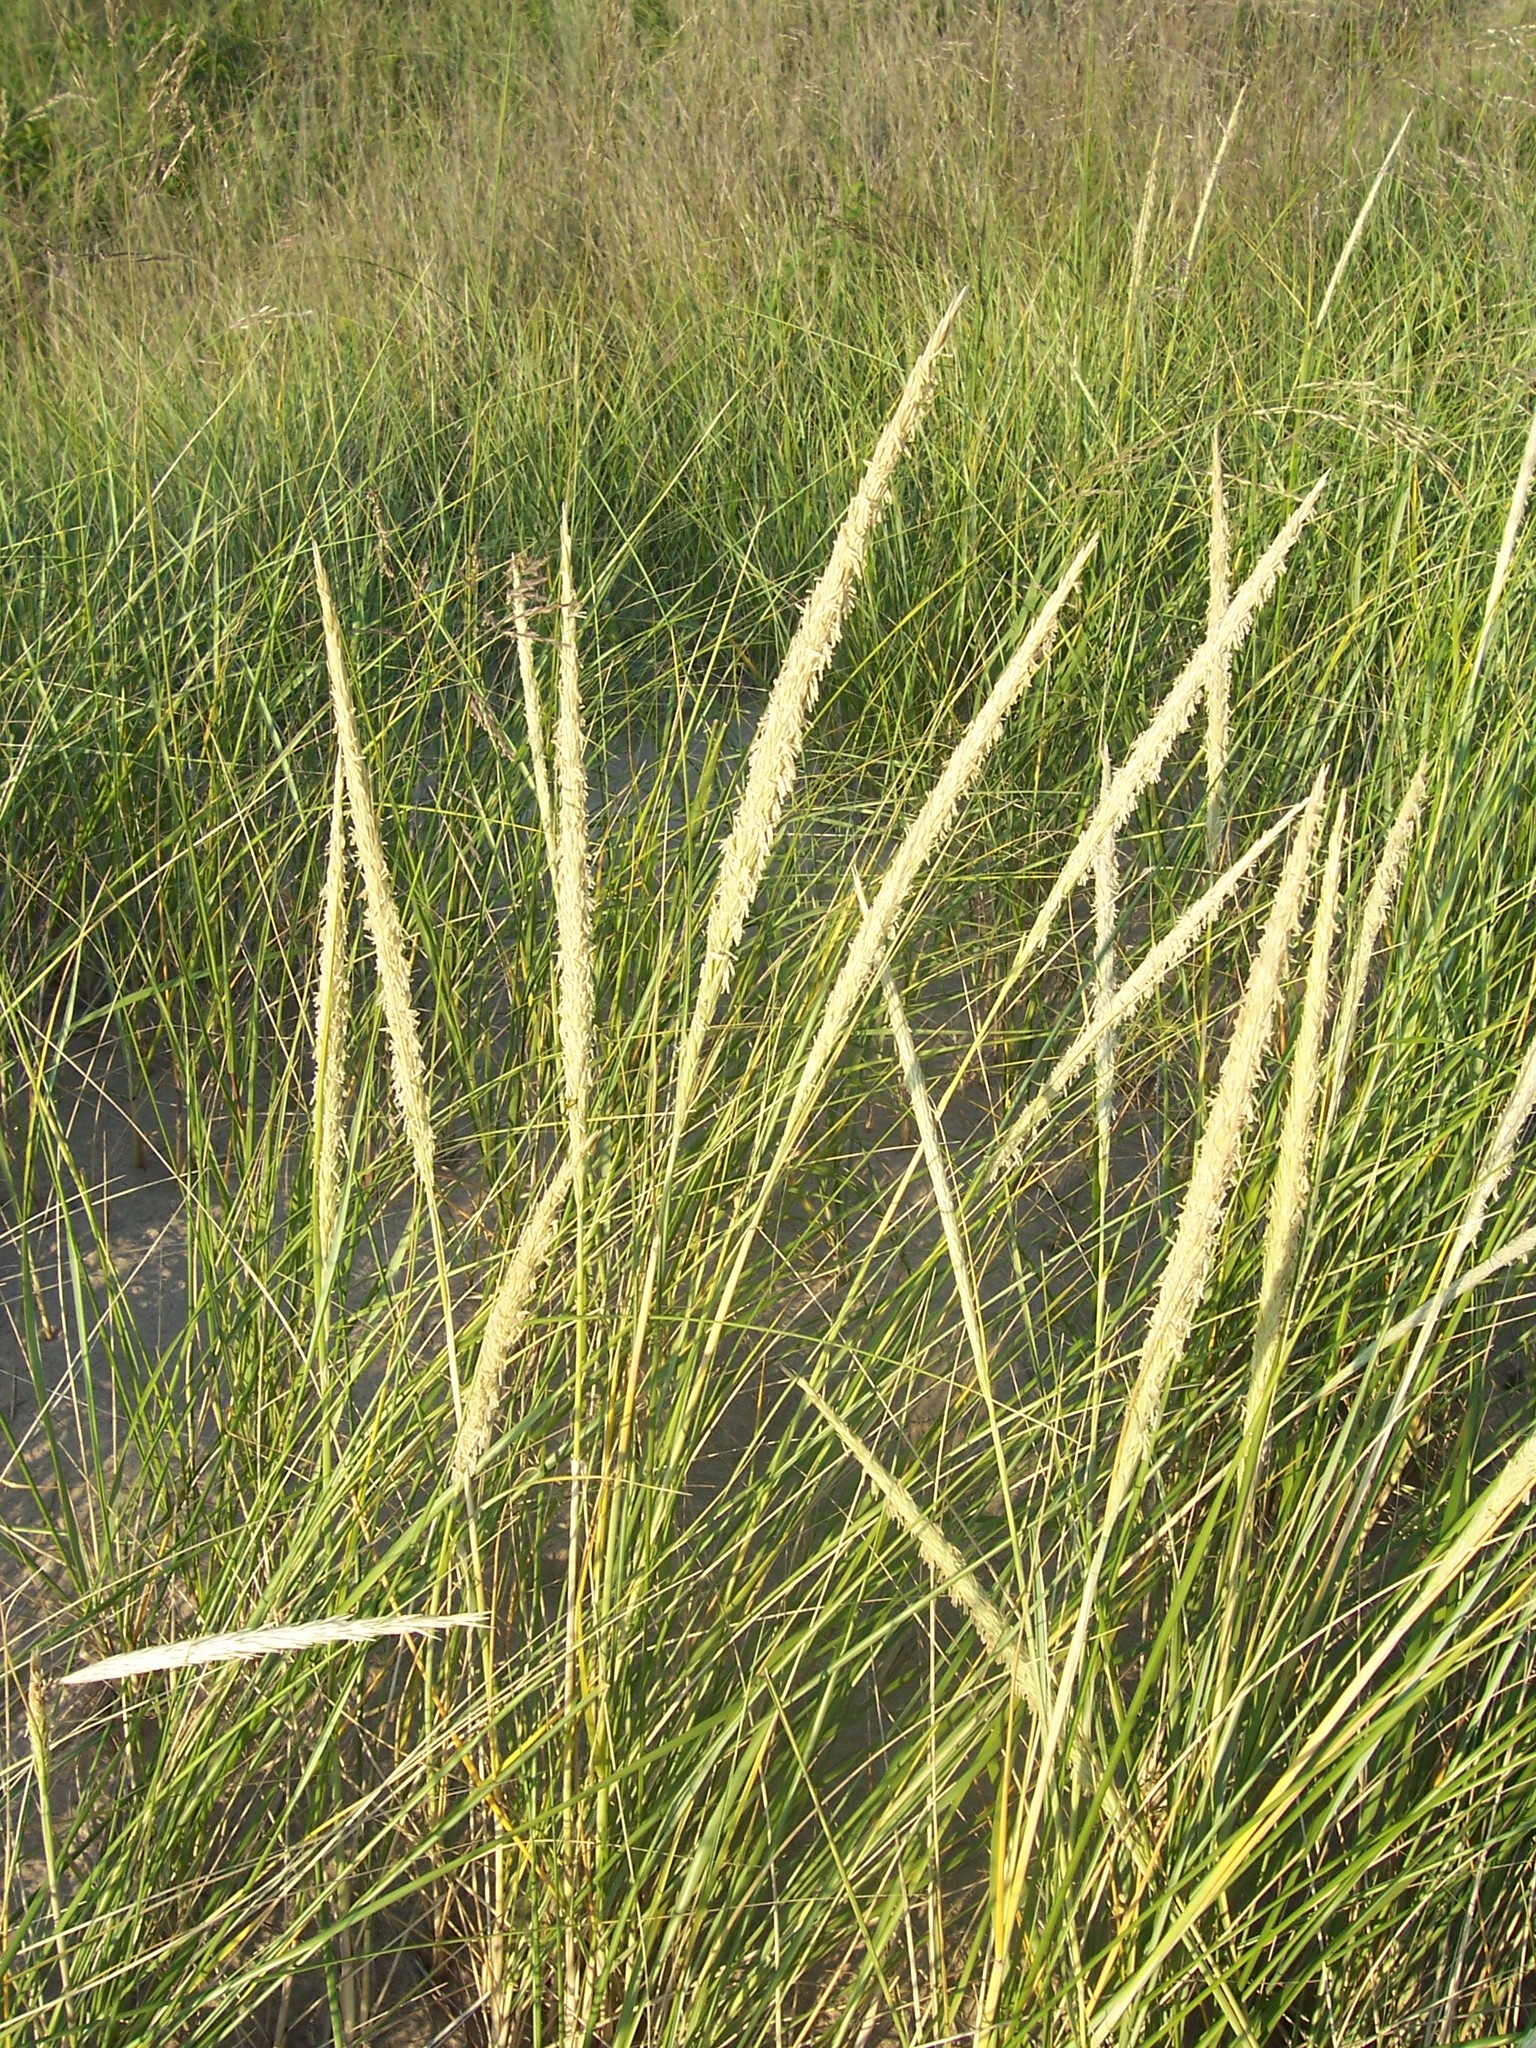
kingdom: Plantae
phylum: Tracheophyta
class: Liliopsida
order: Poales
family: Poaceae
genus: Calamagrostis
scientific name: Calamagrostis breviligulata
